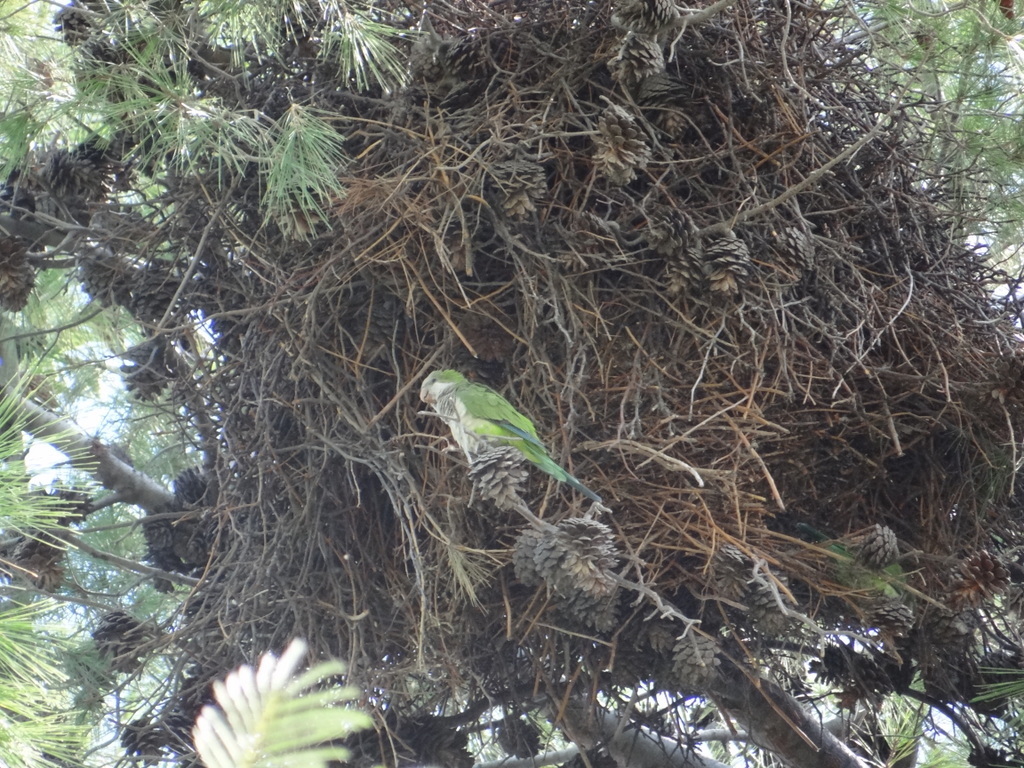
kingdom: Animalia
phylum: Chordata
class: Aves
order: Psittaciformes
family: Psittacidae
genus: Myiopsitta
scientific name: Myiopsitta monachus
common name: Monk parakeet
